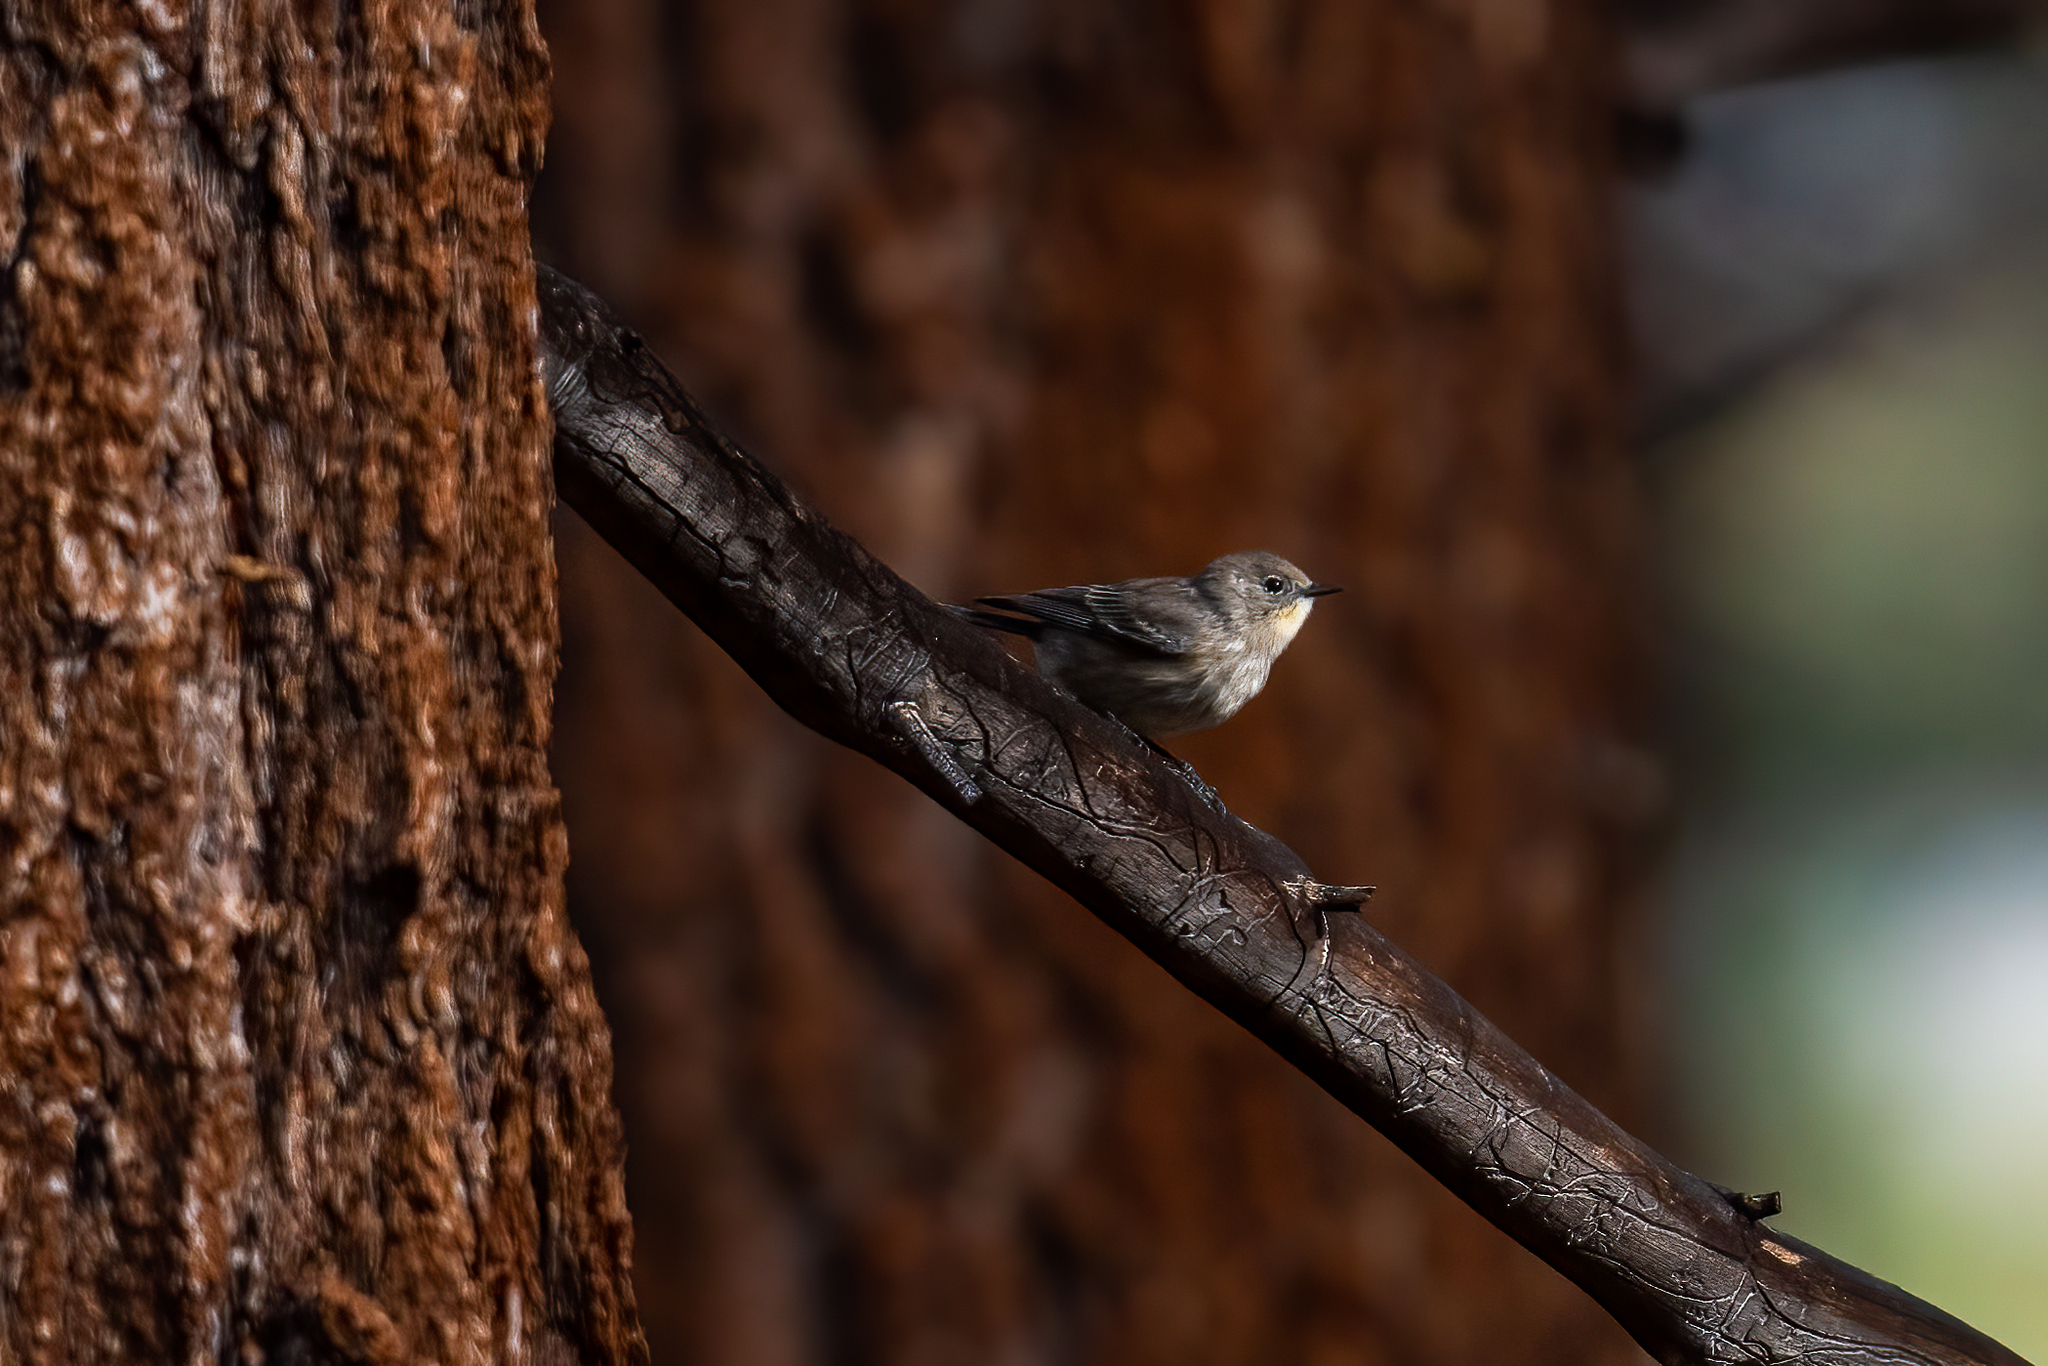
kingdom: Animalia
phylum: Chordata
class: Aves
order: Passeriformes
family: Parulidae
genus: Setophaga
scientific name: Setophaga coronata
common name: Myrtle warbler
